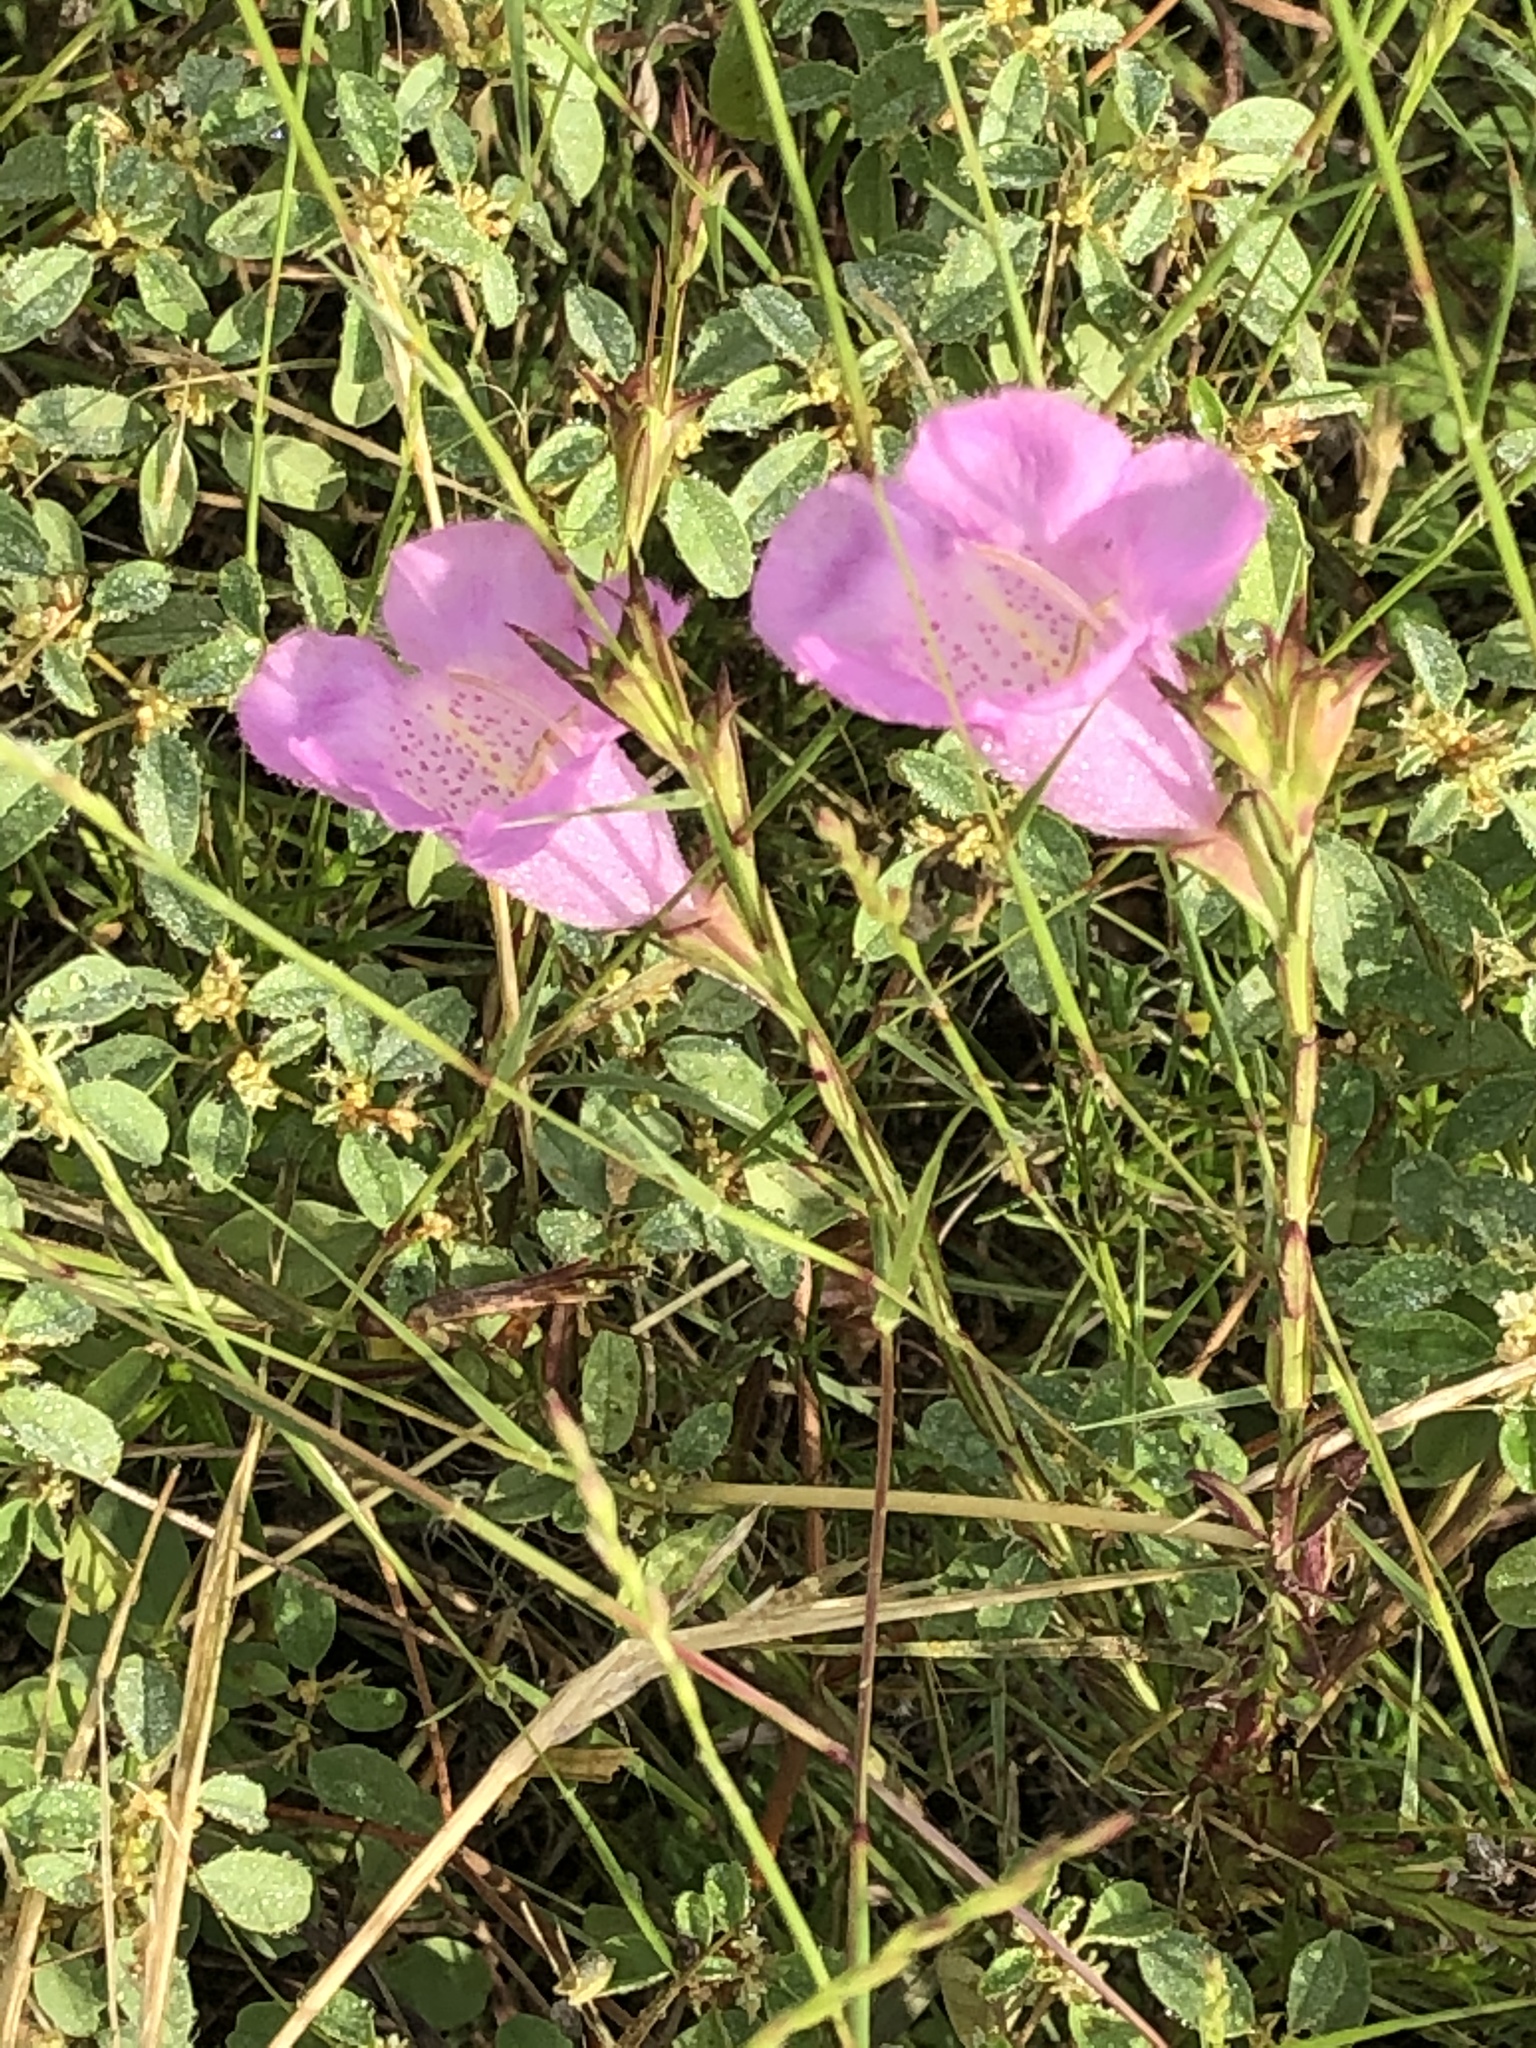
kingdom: Plantae
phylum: Tracheophyta
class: Magnoliopsida
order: Lamiales
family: Orobanchaceae
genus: Agalinis
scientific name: Agalinis heterophylla
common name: Prairie agalinis
